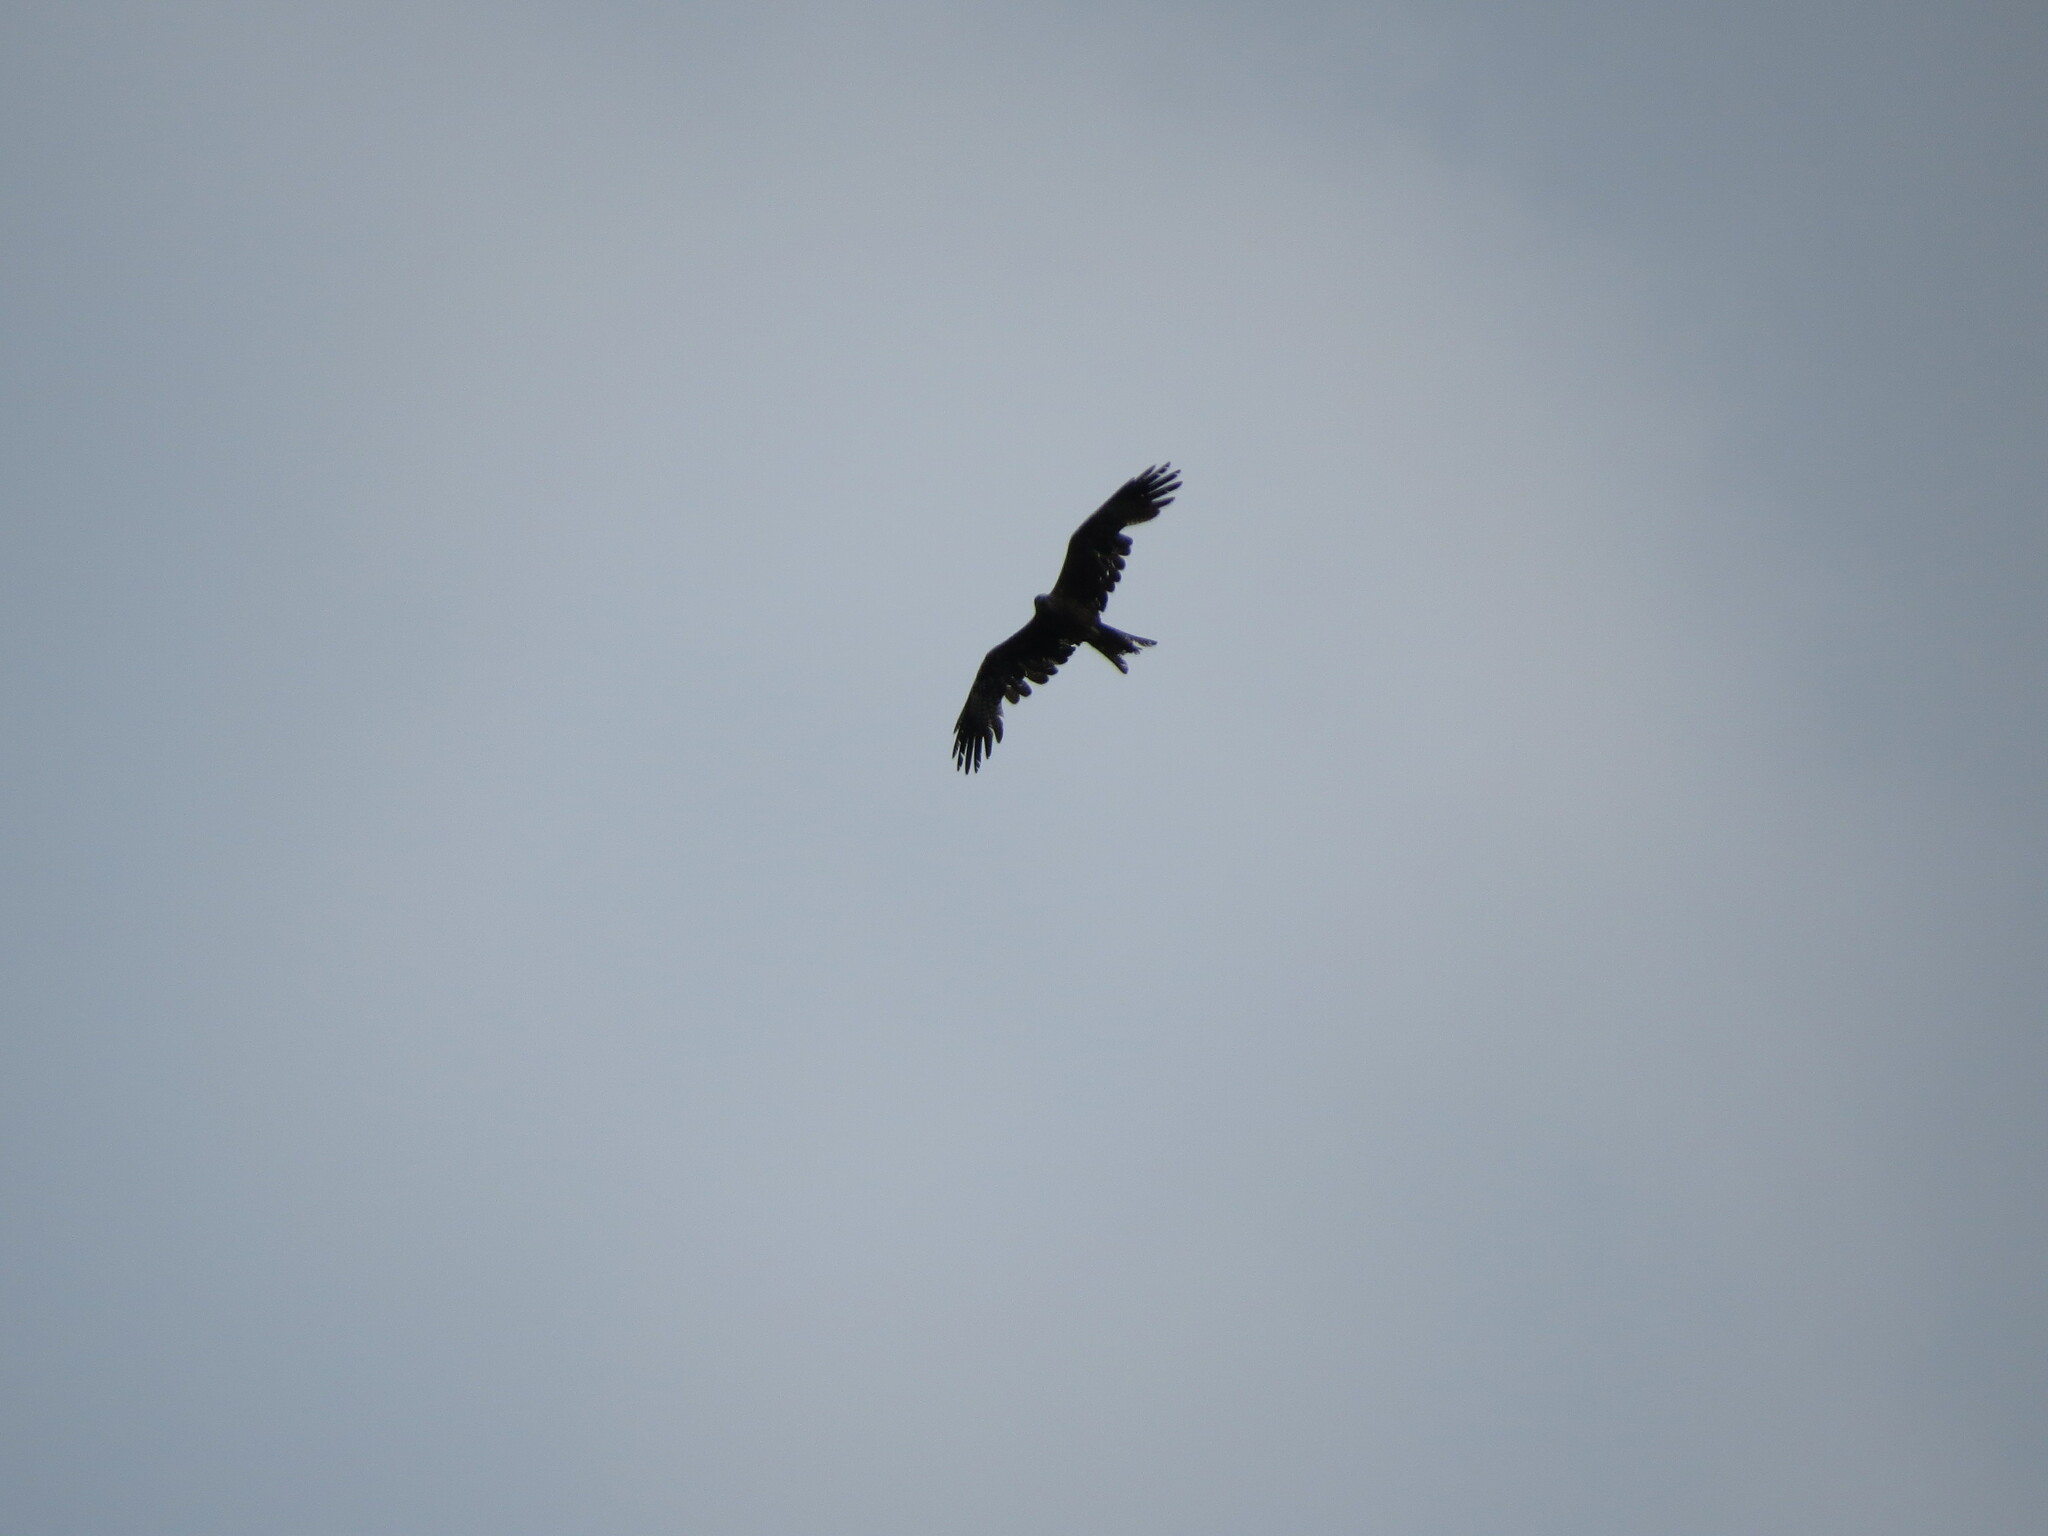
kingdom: Animalia
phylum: Chordata
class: Aves
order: Accipitriformes
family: Accipitridae
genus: Milvus
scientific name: Milvus migrans
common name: Black kite
